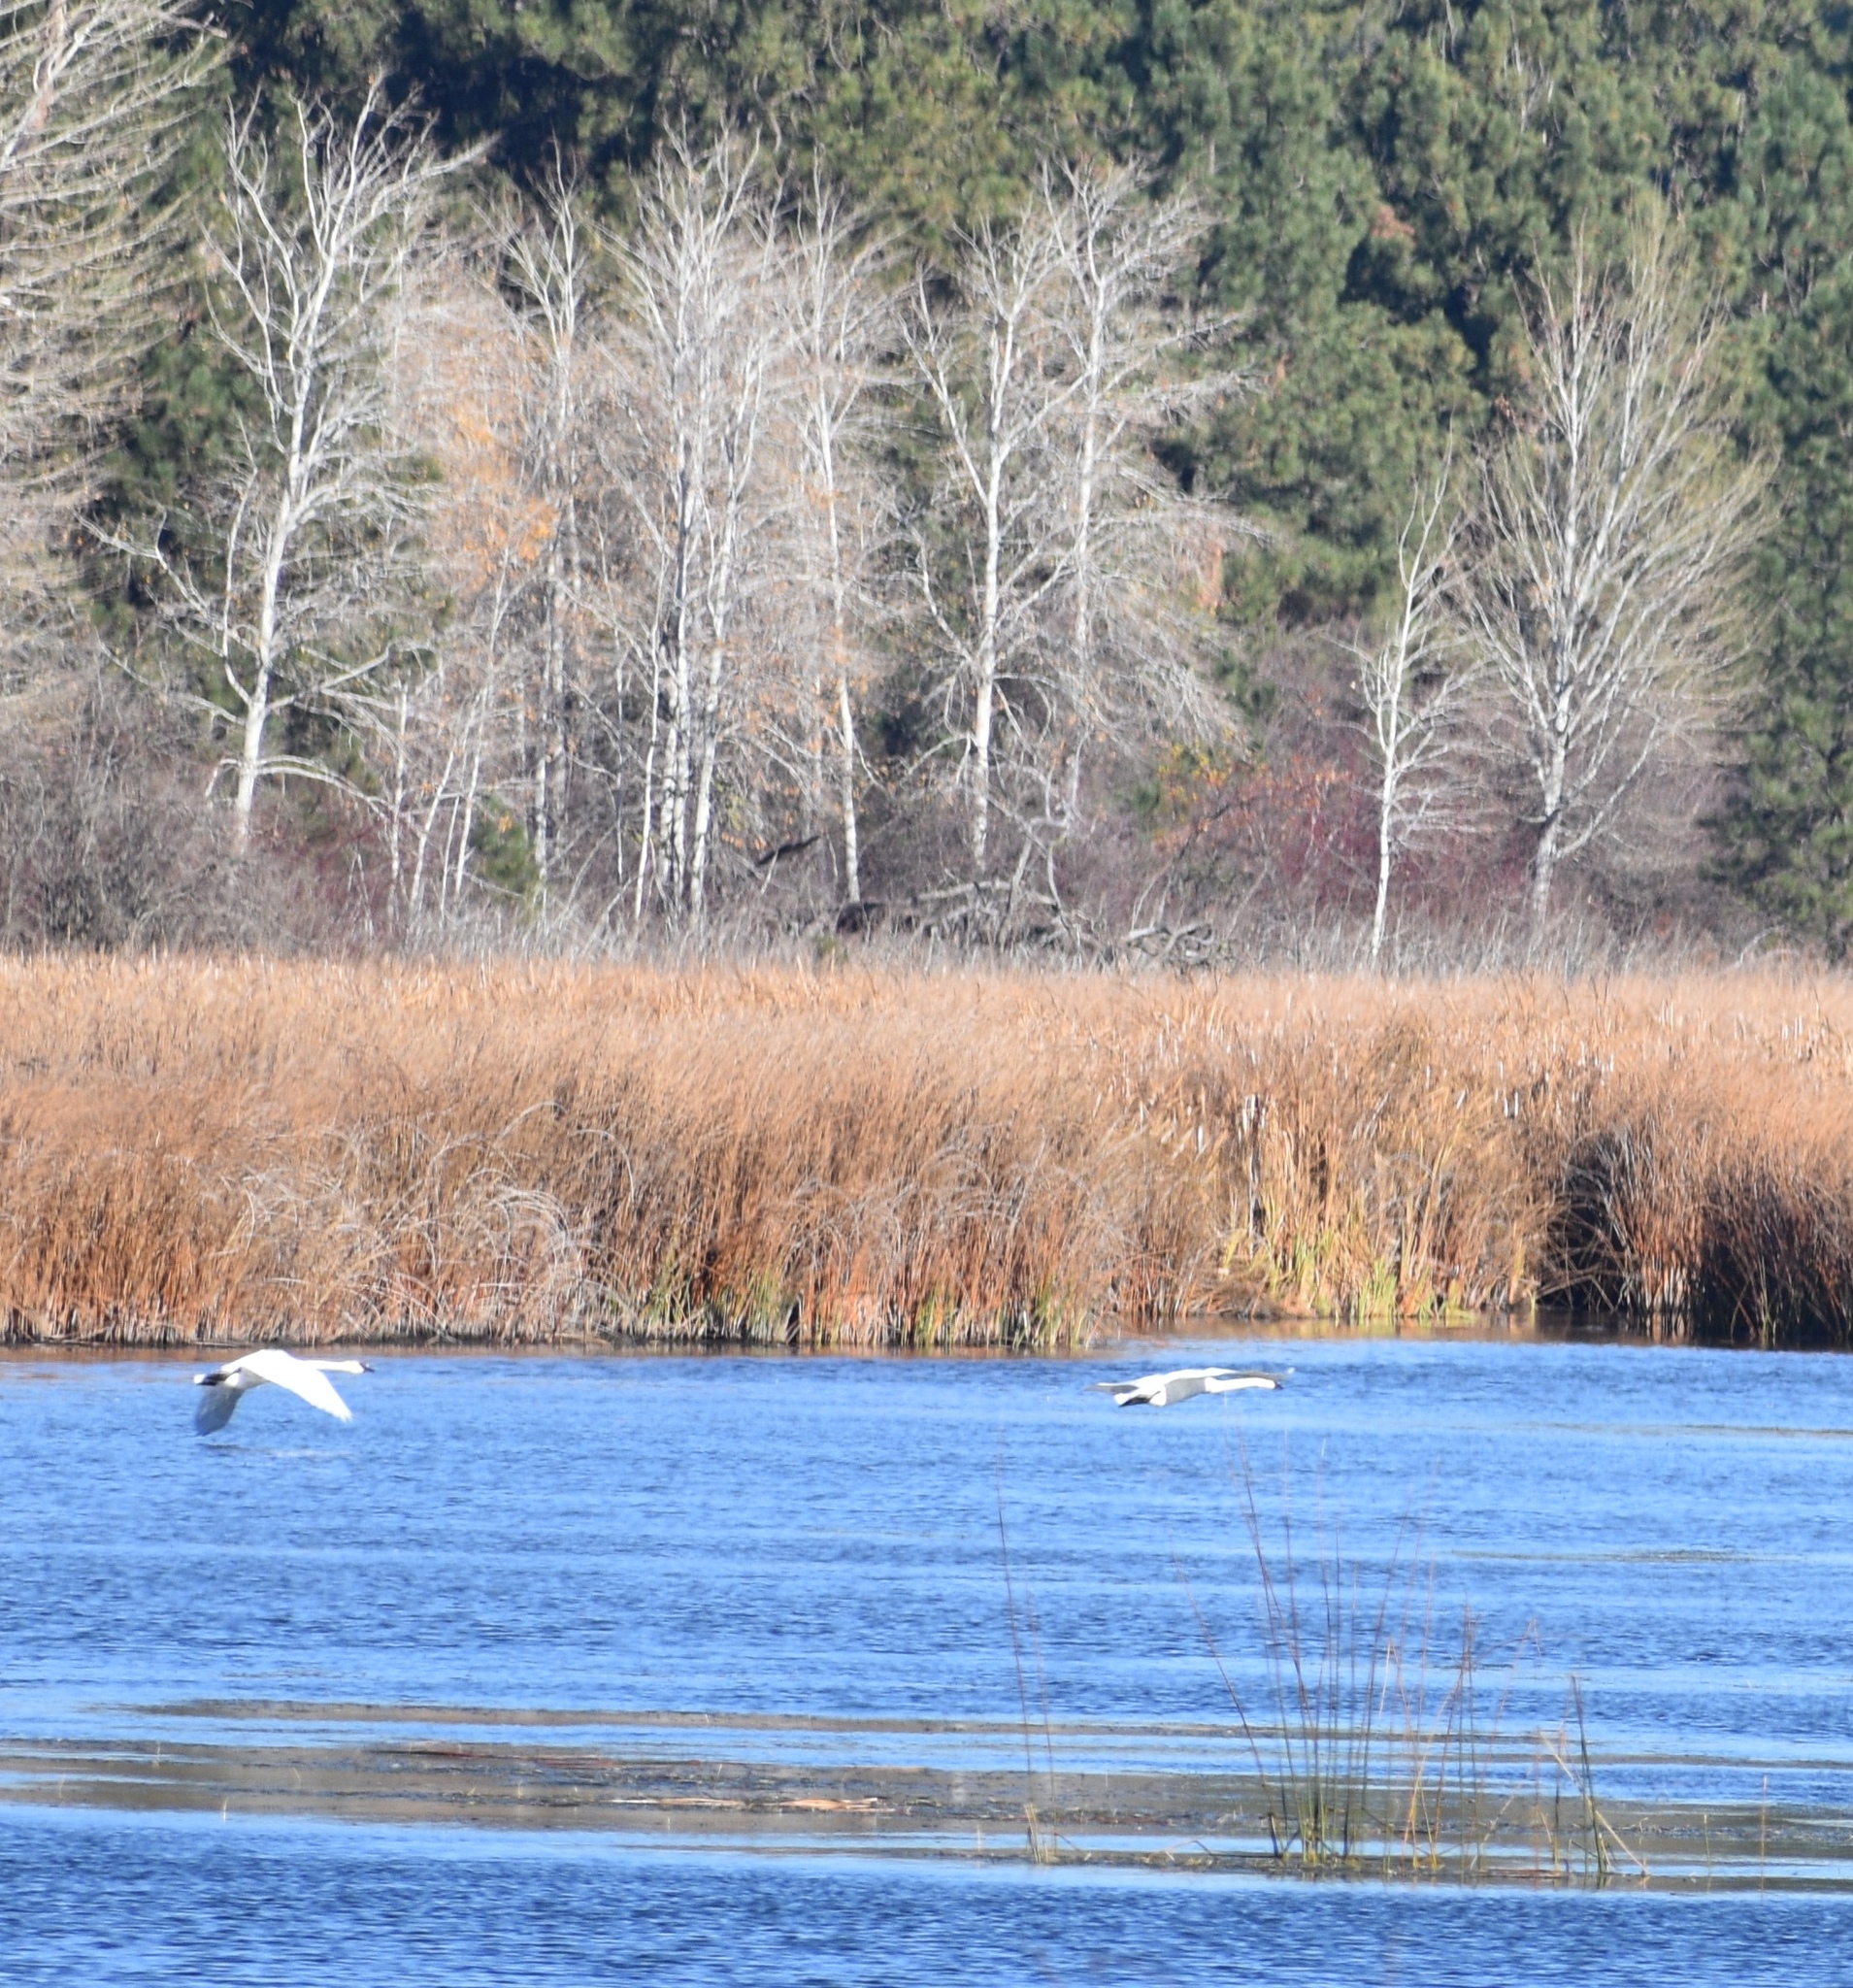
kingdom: Animalia
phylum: Chordata
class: Aves
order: Anseriformes
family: Anatidae
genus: Cygnus
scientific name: Cygnus buccinator
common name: Trumpeter swan
